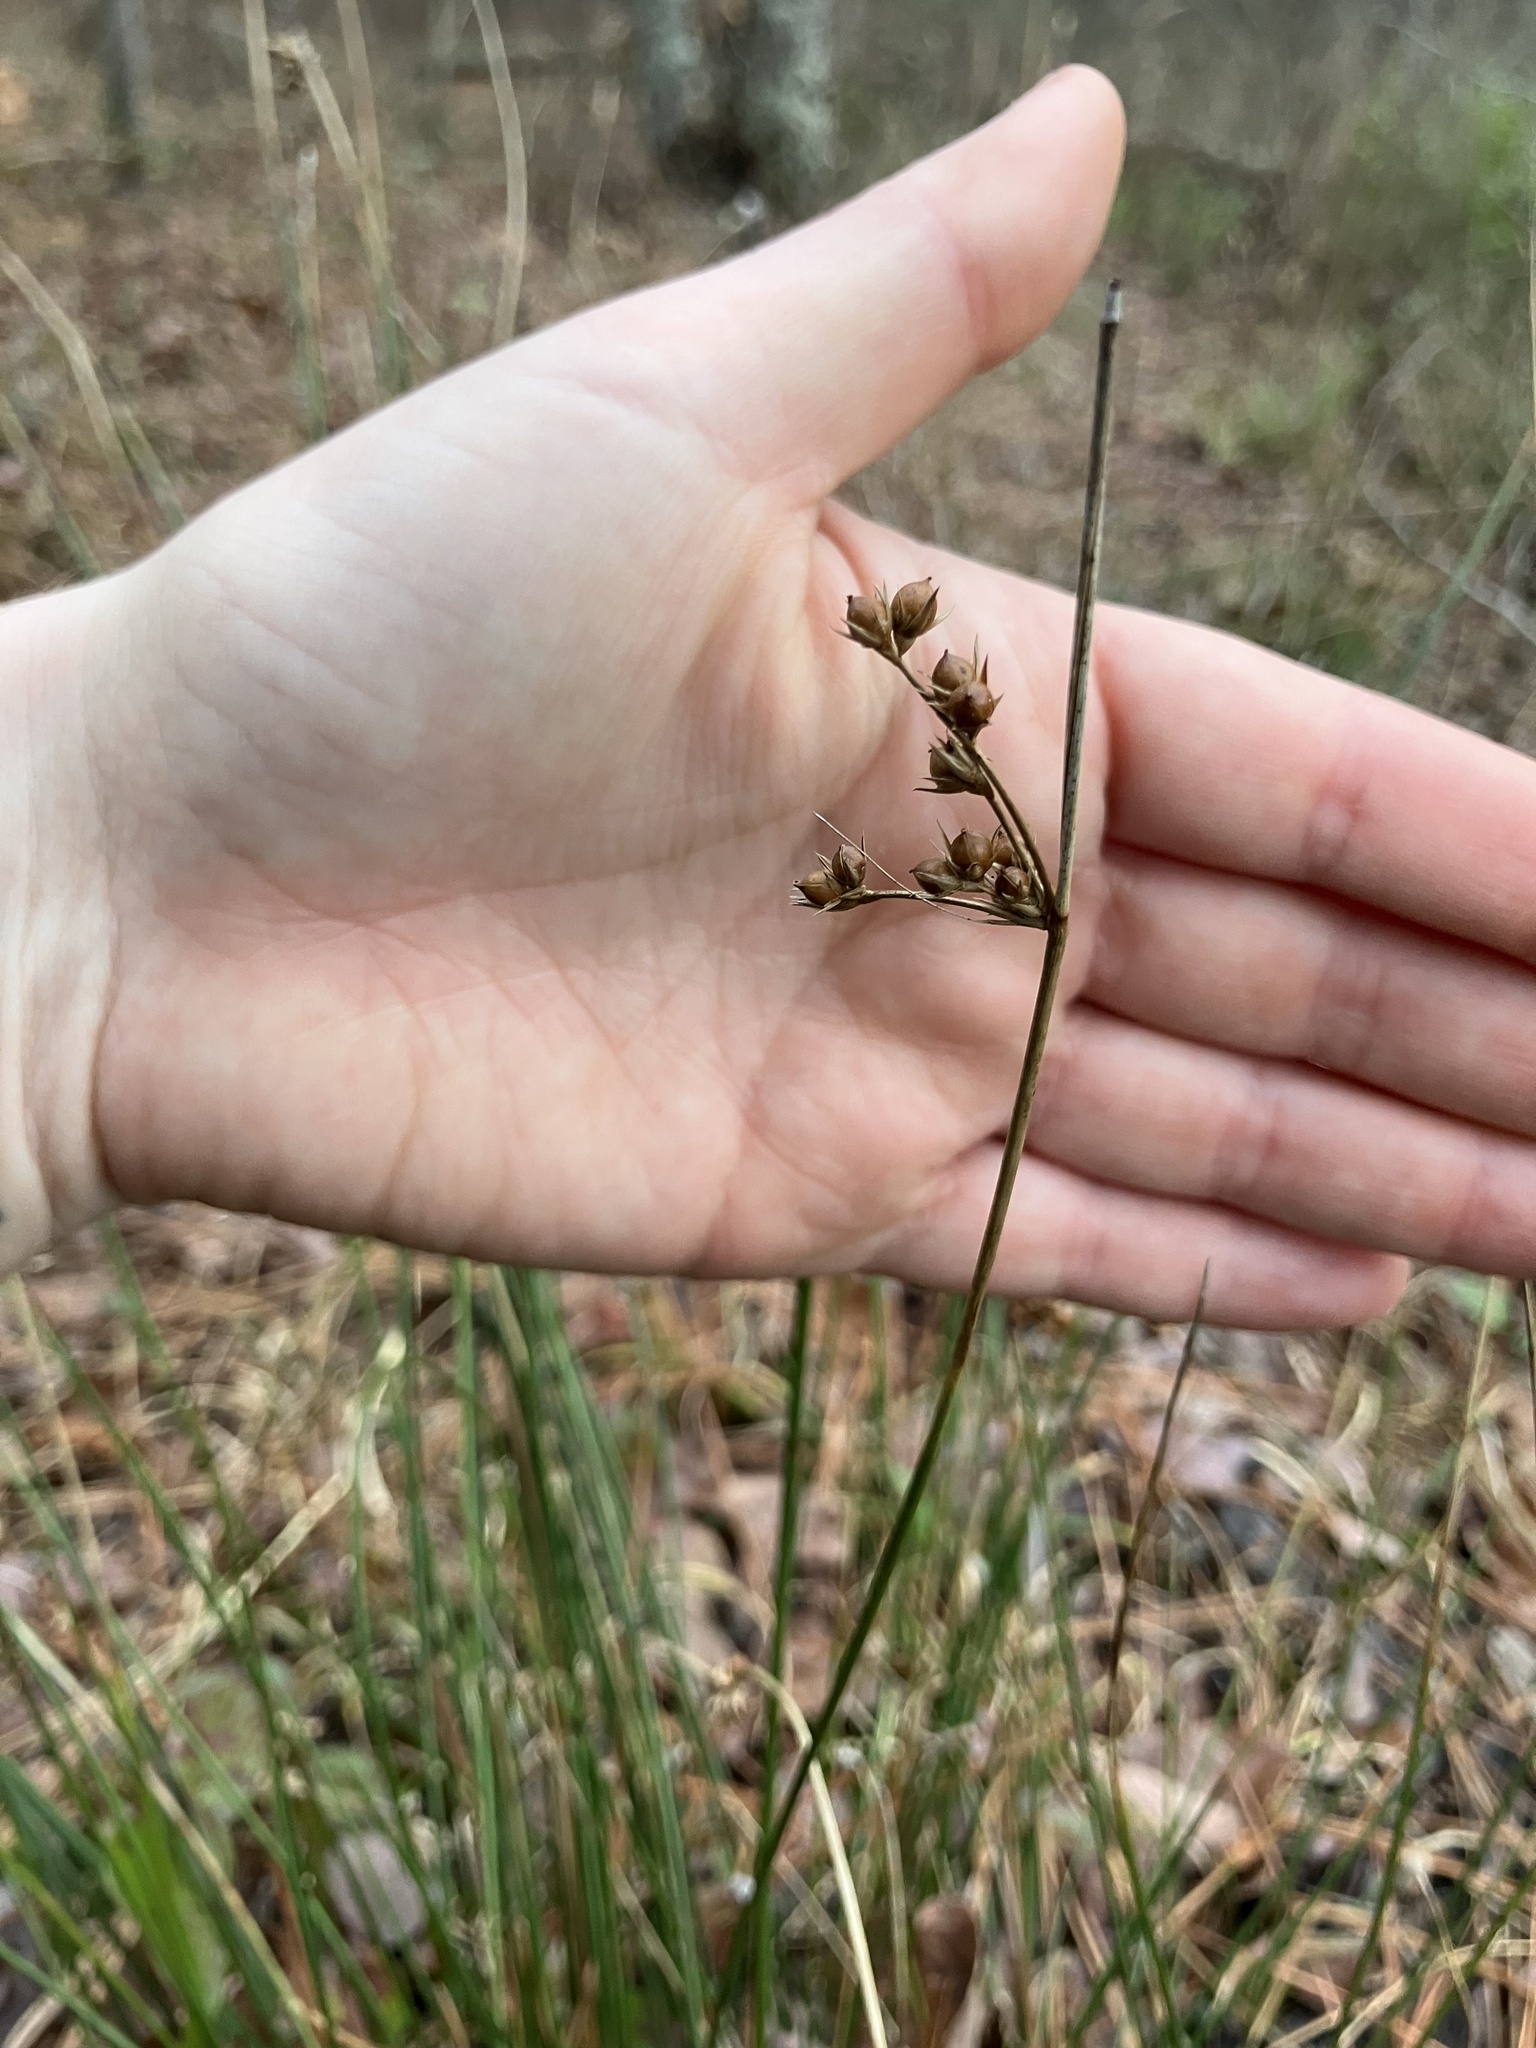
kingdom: Plantae
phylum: Tracheophyta
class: Liliopsida
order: Poales
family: Juncaceae
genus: Juncus
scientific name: Juncus coriaceus
